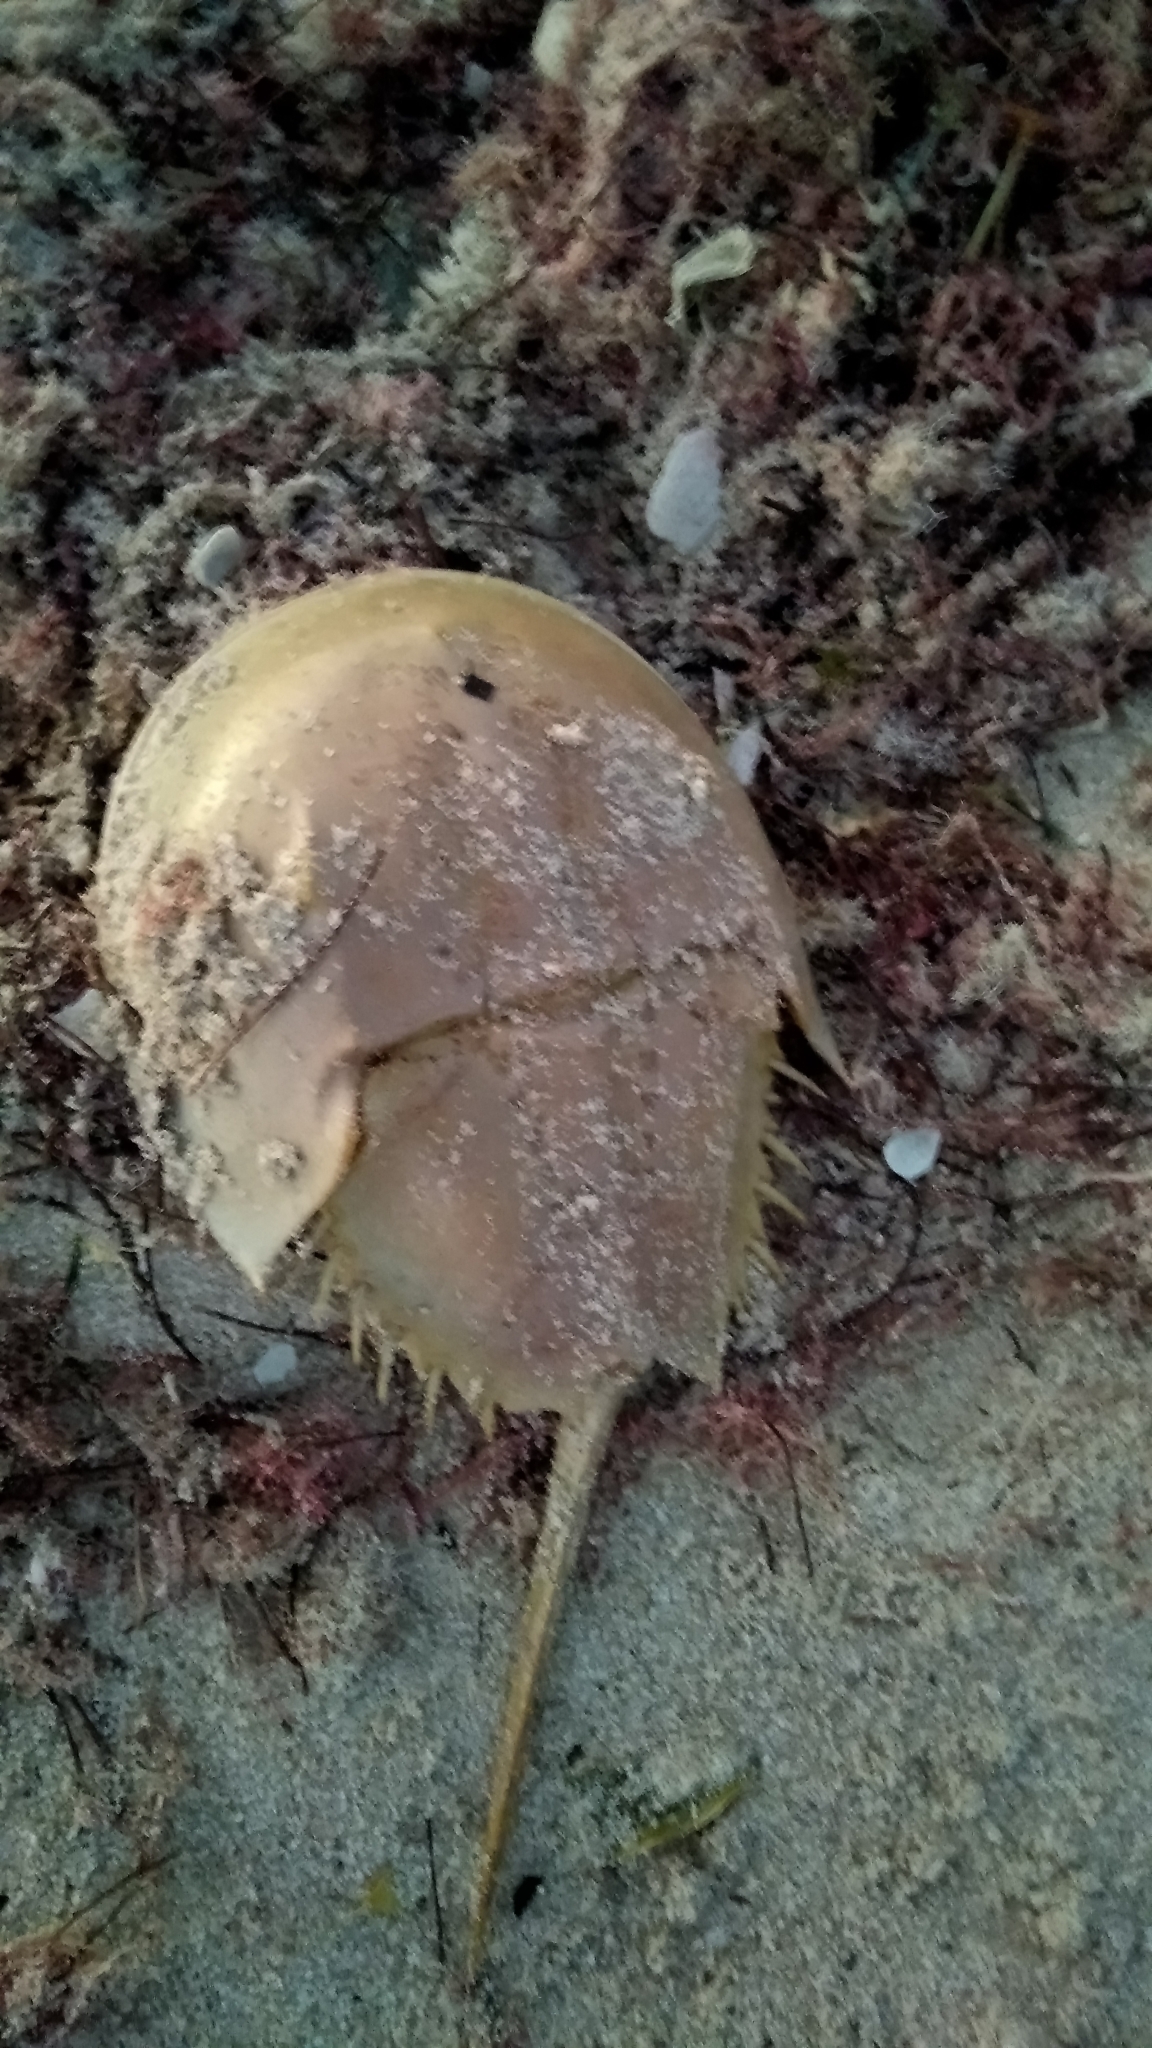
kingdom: Animalia
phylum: Arthropoda
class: Merostomata
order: Xiphosurida
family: Limulidae
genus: Limulus
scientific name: Limulus polyphemus
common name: Horseshoe crab
